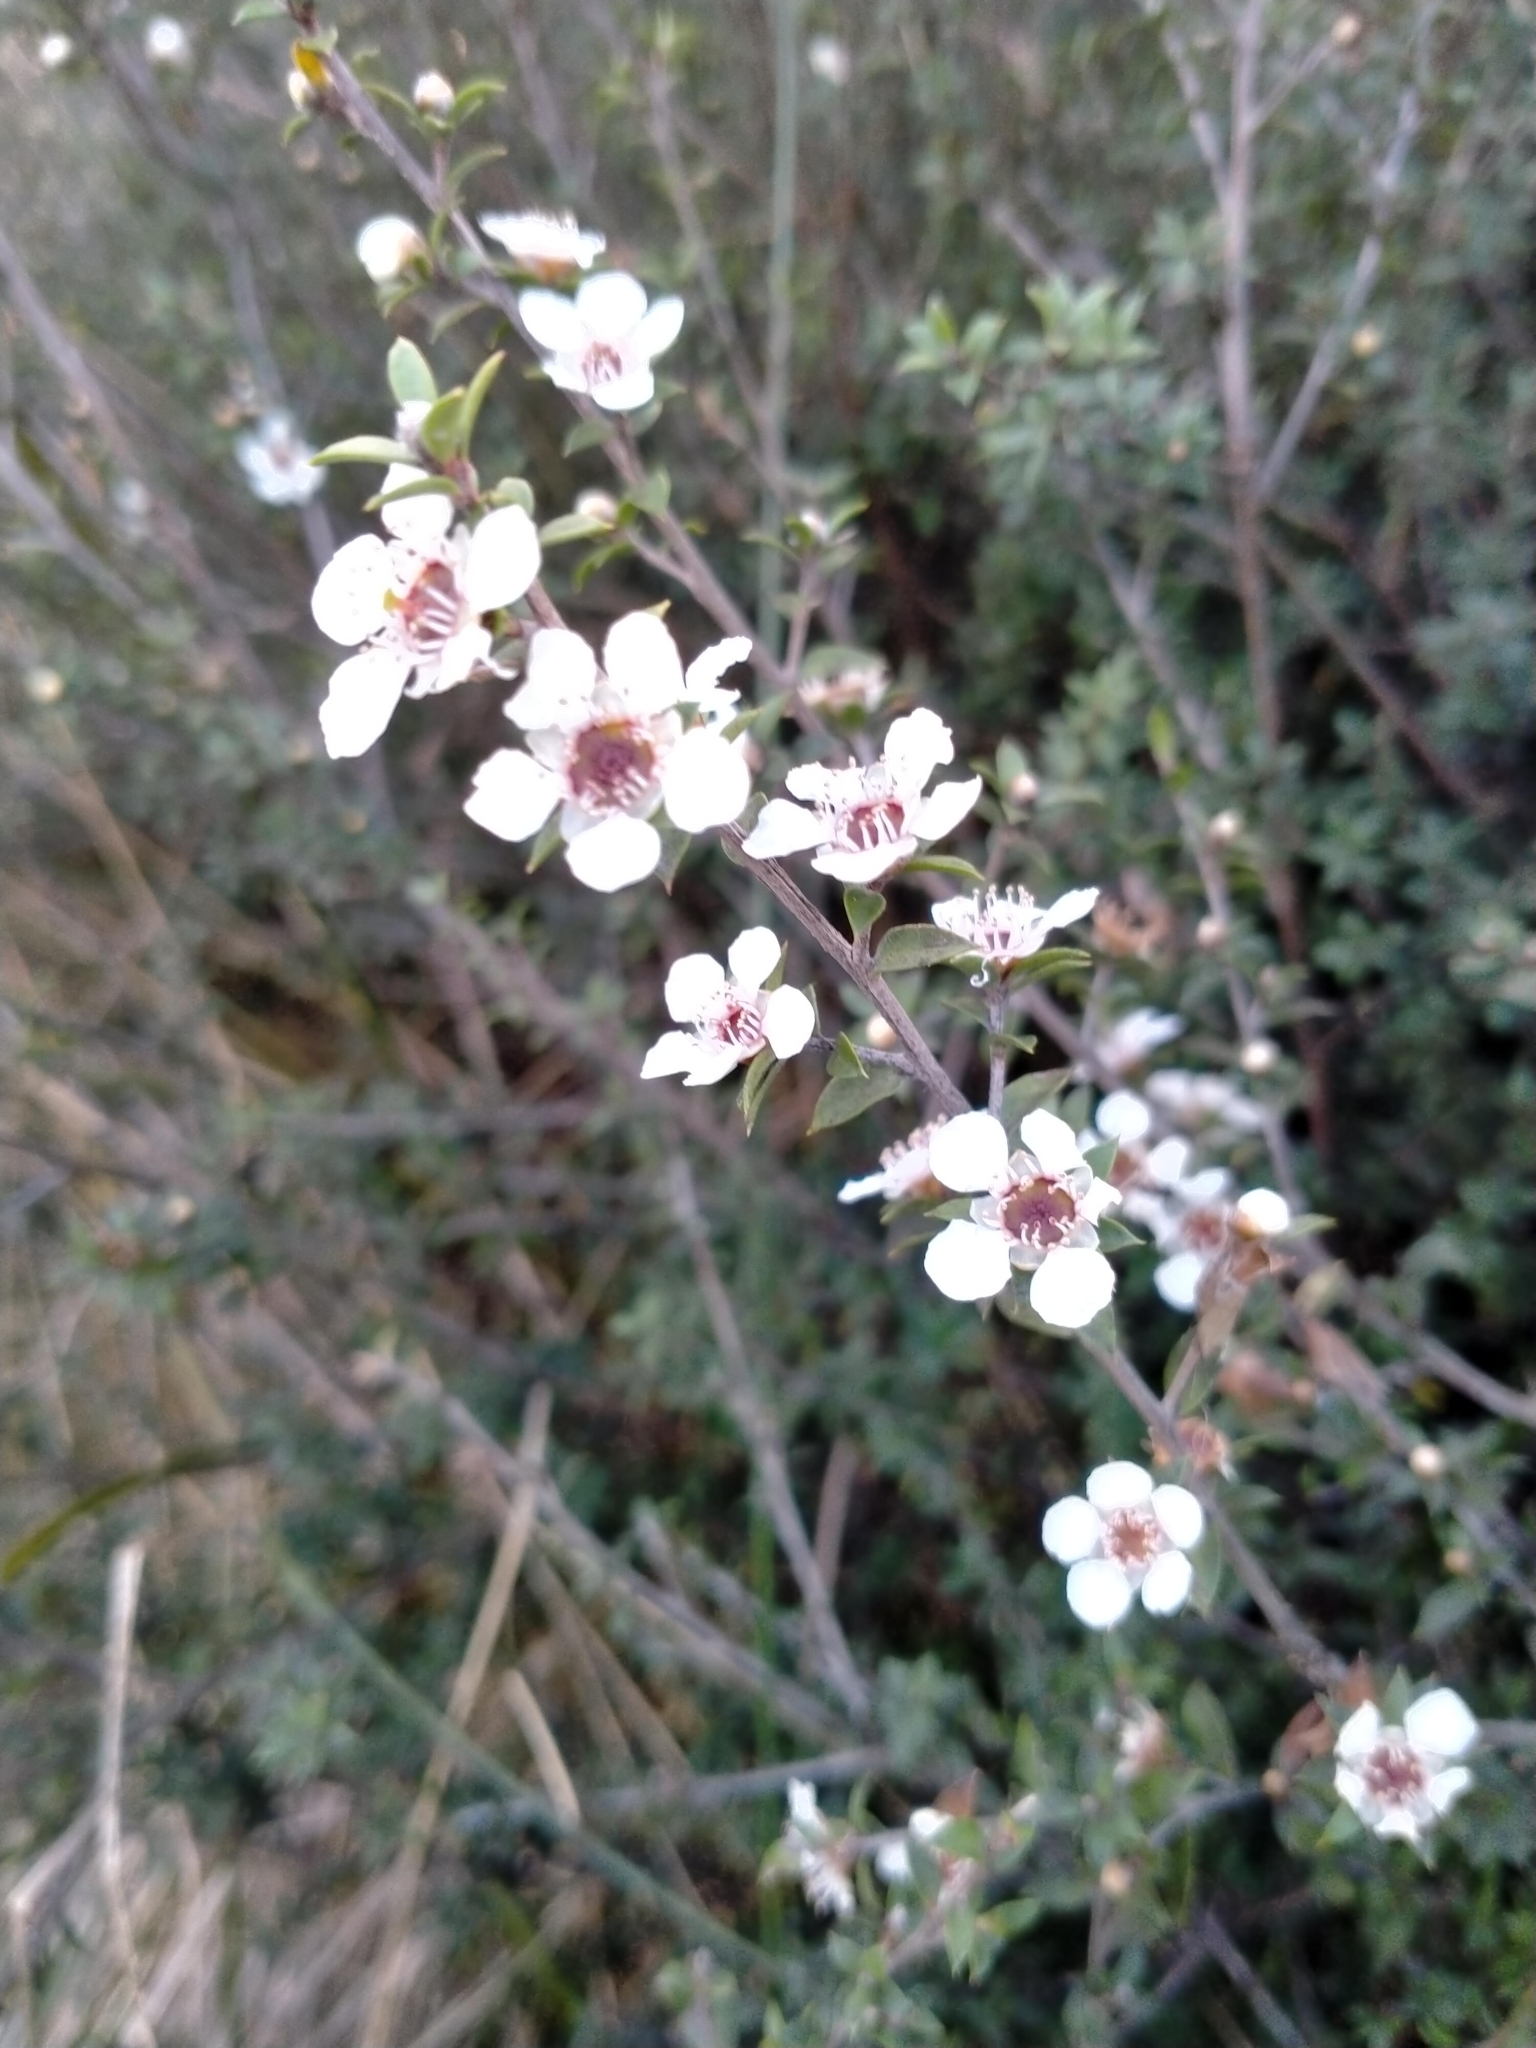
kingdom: Plantae
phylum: Tracheophyta
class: Magnoliopsida
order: Myrtales
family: Myrtaceae
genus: Leptospermum
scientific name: Leptospermum scoparium
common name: Broom tea-tree
